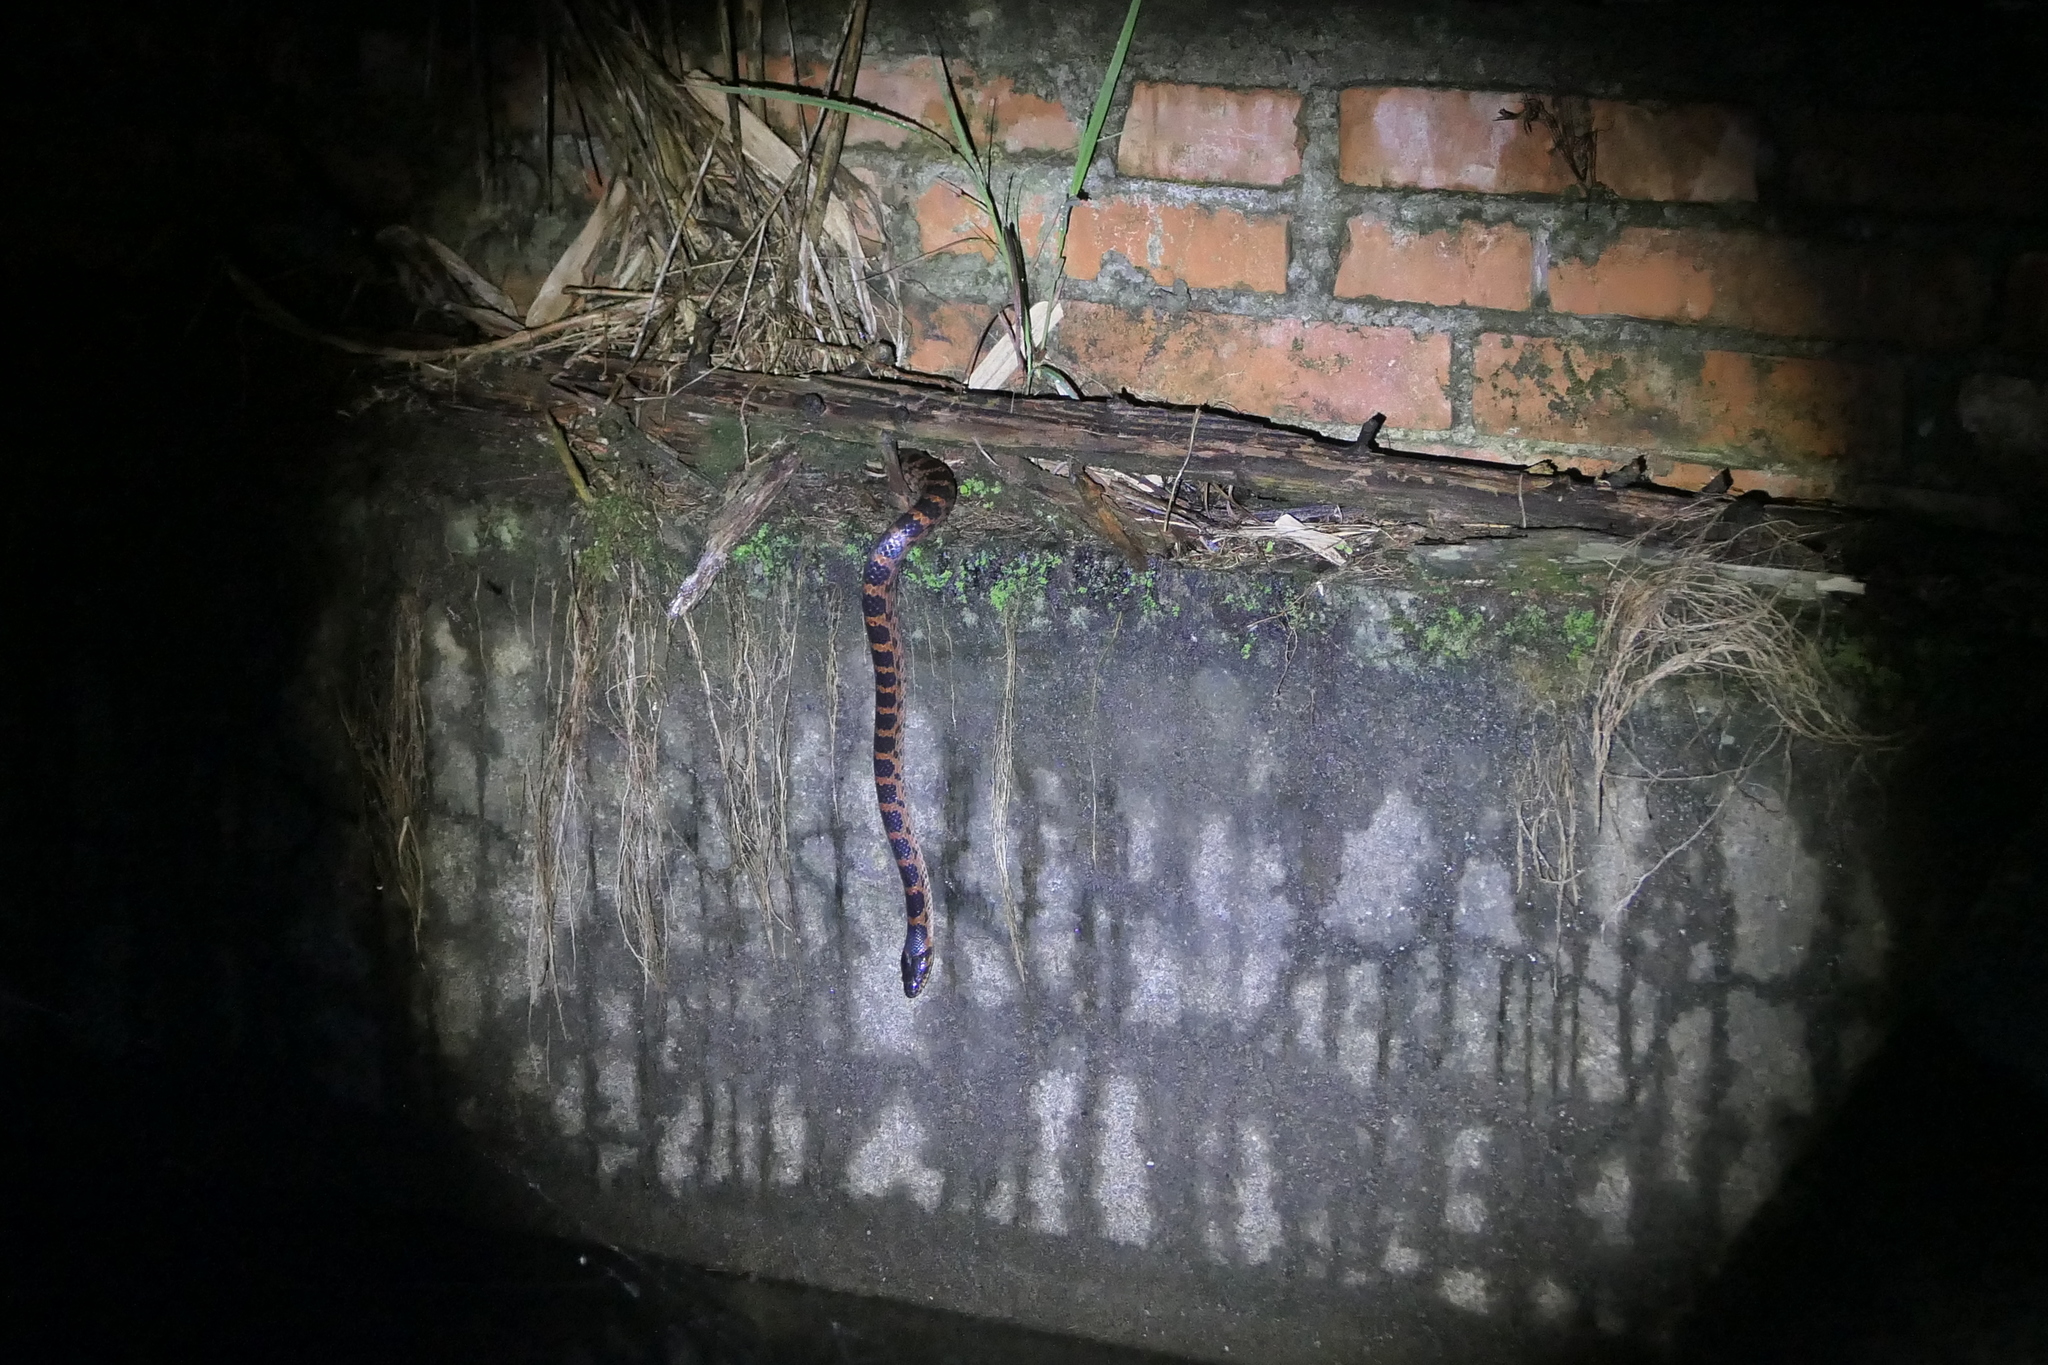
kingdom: Animalia
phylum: Chordata
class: Squamata
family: Colubridae
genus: Lycodon
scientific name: Lycodon rufozonatus
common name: Red-banded snake
